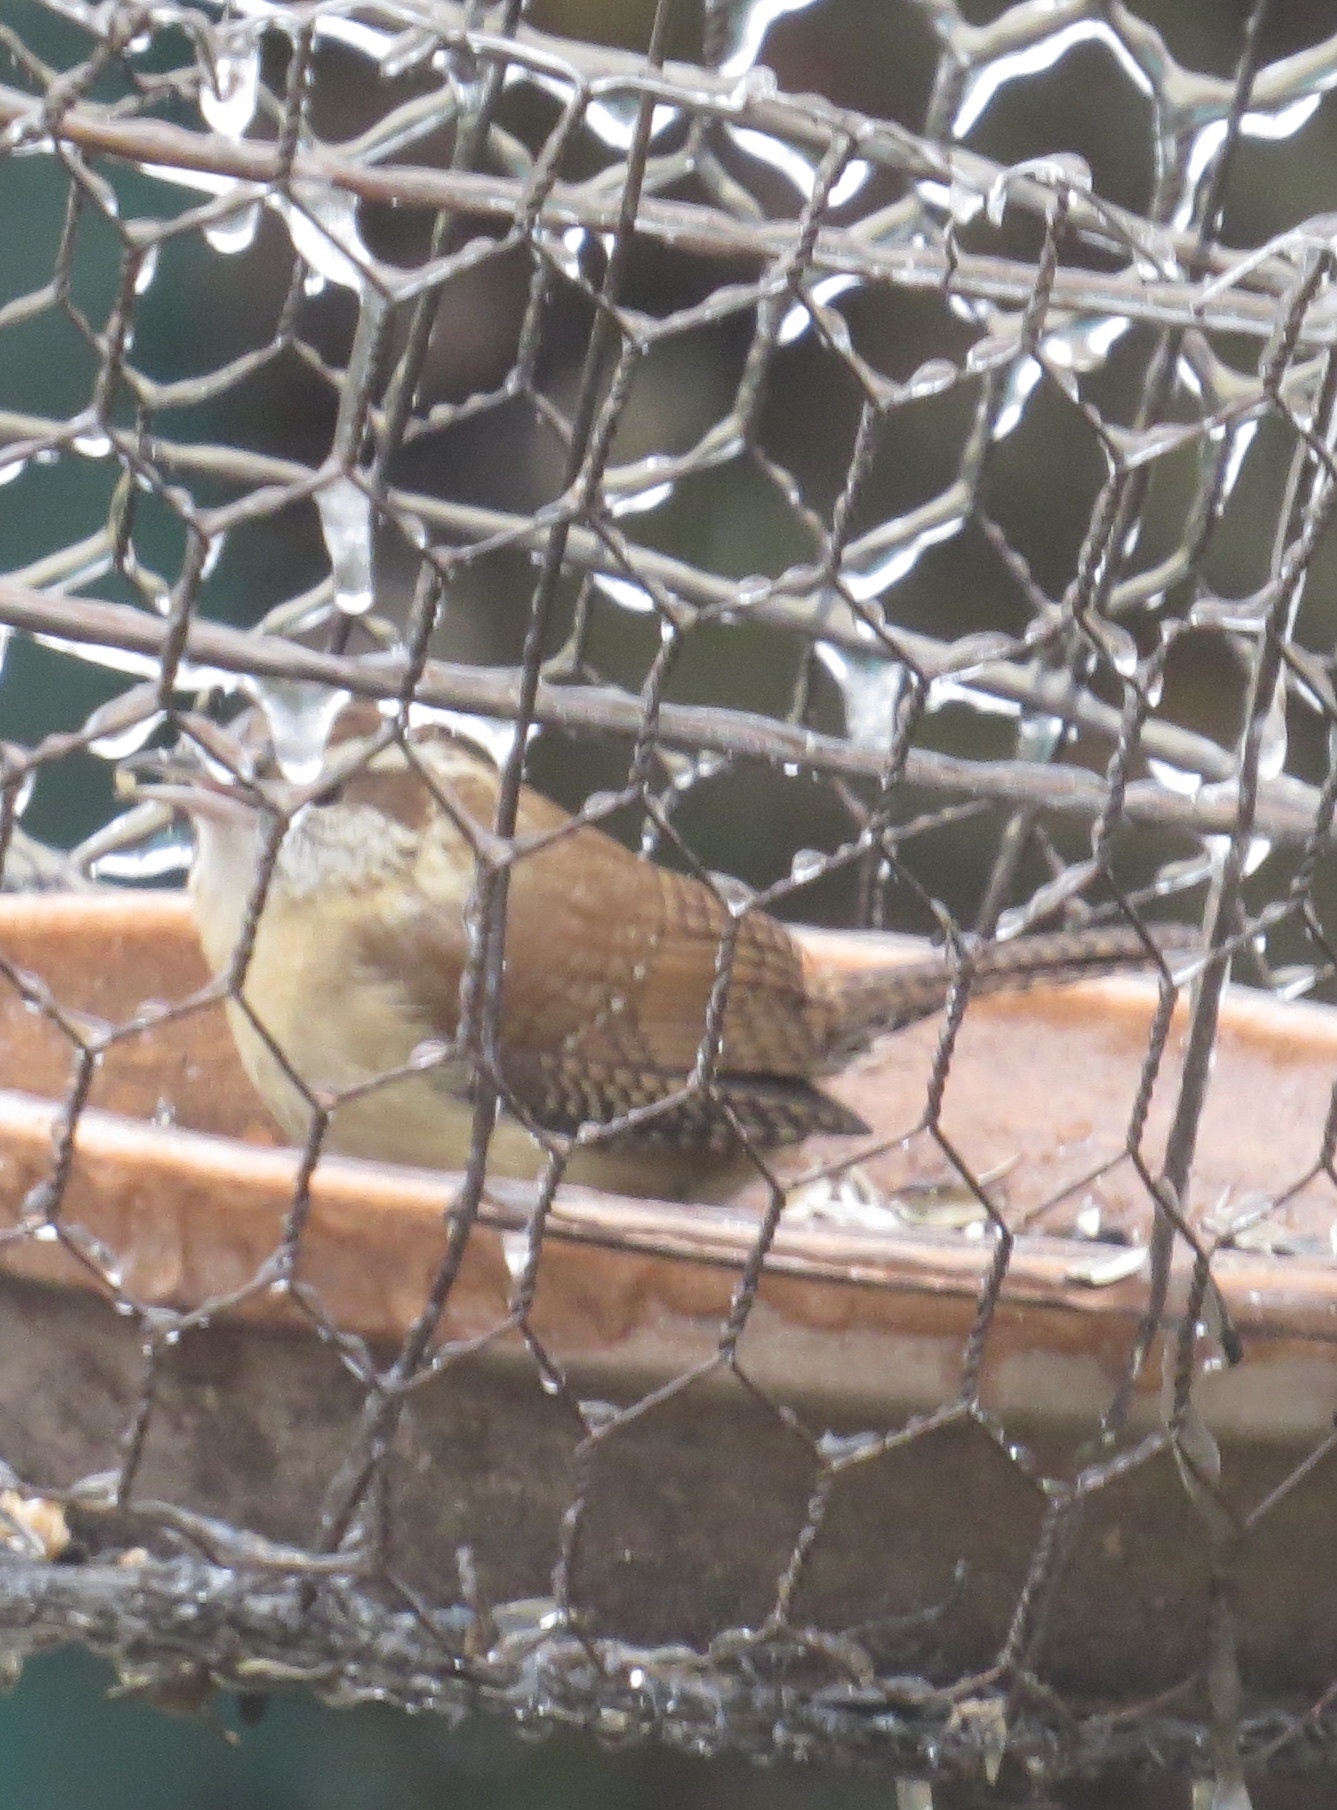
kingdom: Animalia
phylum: Chordata
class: Aves
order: Passeriformes
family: Troglodytidae
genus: Thryothorus
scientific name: Thryothorus ludovicianus
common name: Carolina wren
